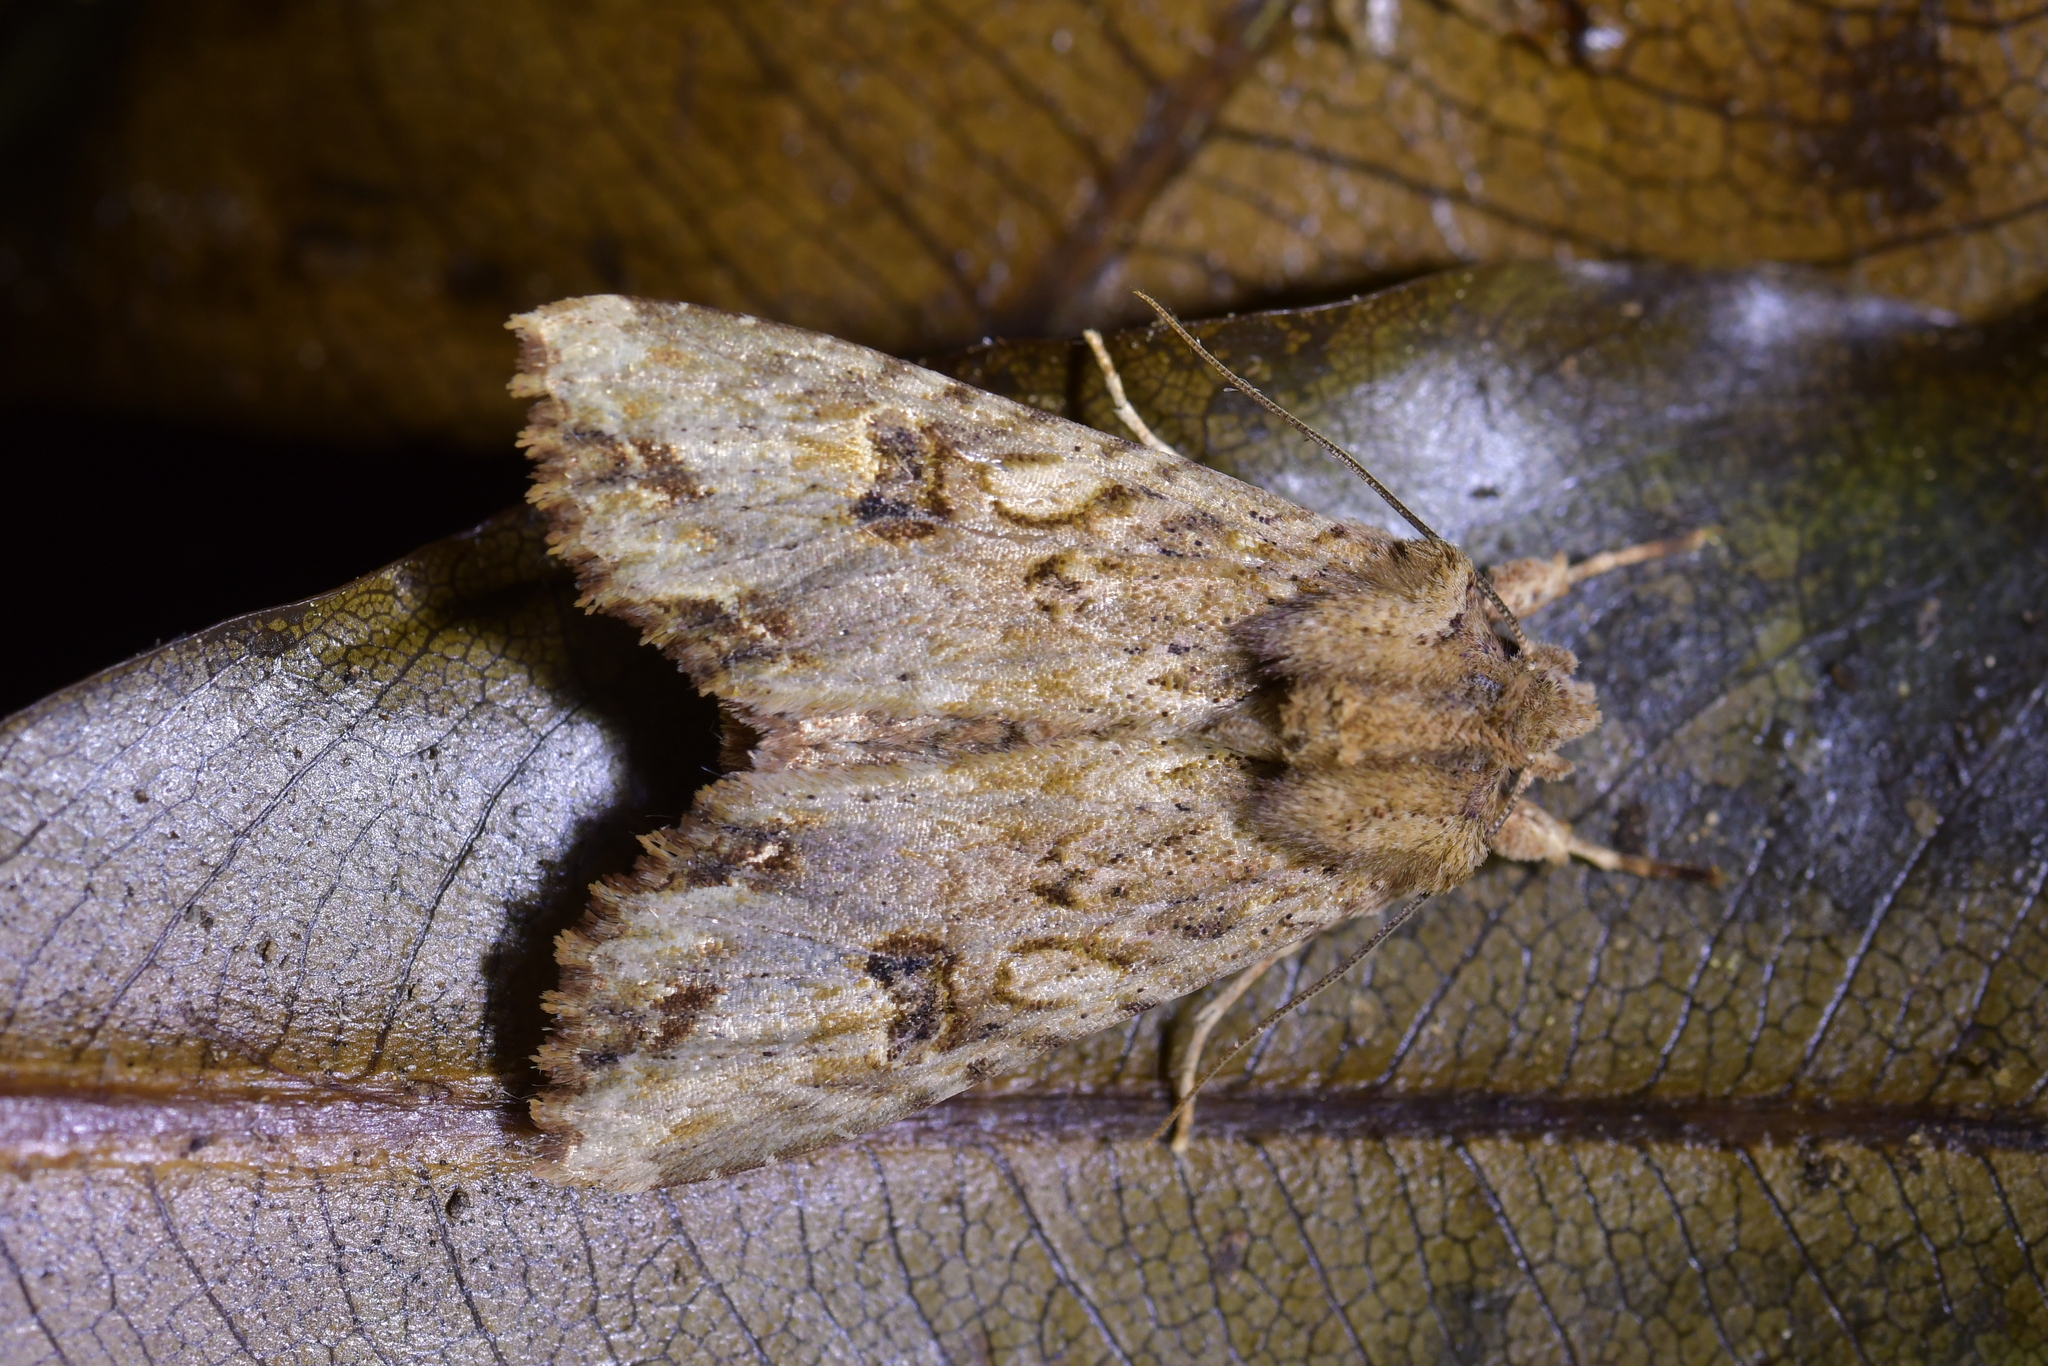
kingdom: Animalia
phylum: Arthropoda
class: Insecta
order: Lepidoptera
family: Noctuidae
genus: Meterana
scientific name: Meterana pascoei
